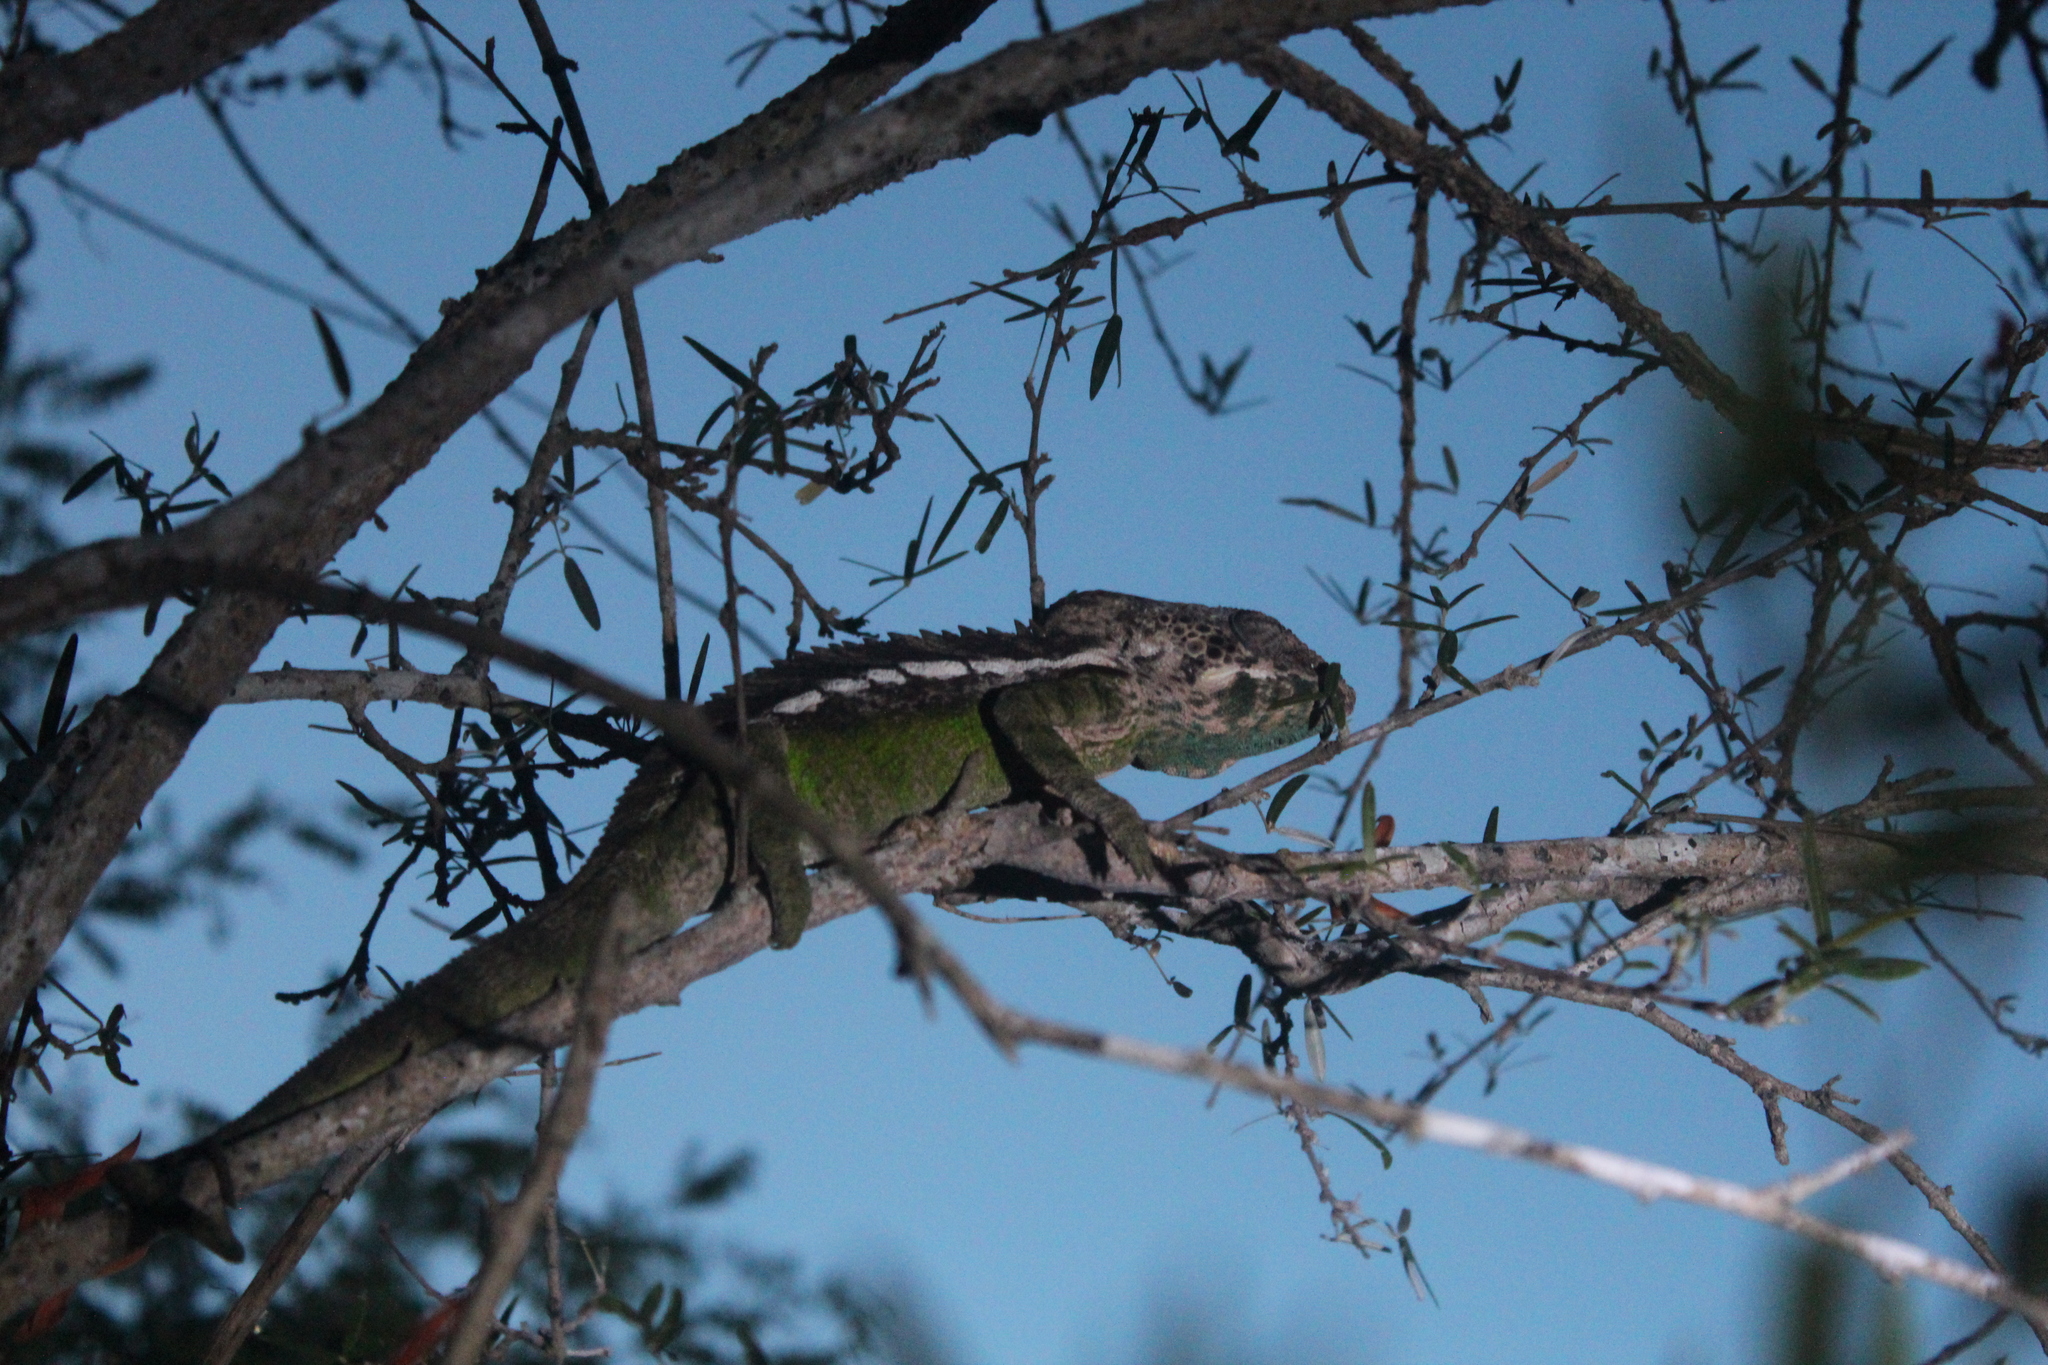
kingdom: Animalia
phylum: Chordata
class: Squamata
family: Chamaeleonidae
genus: Furcifer
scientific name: Furcifer verrucosus
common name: Warty chameleon
